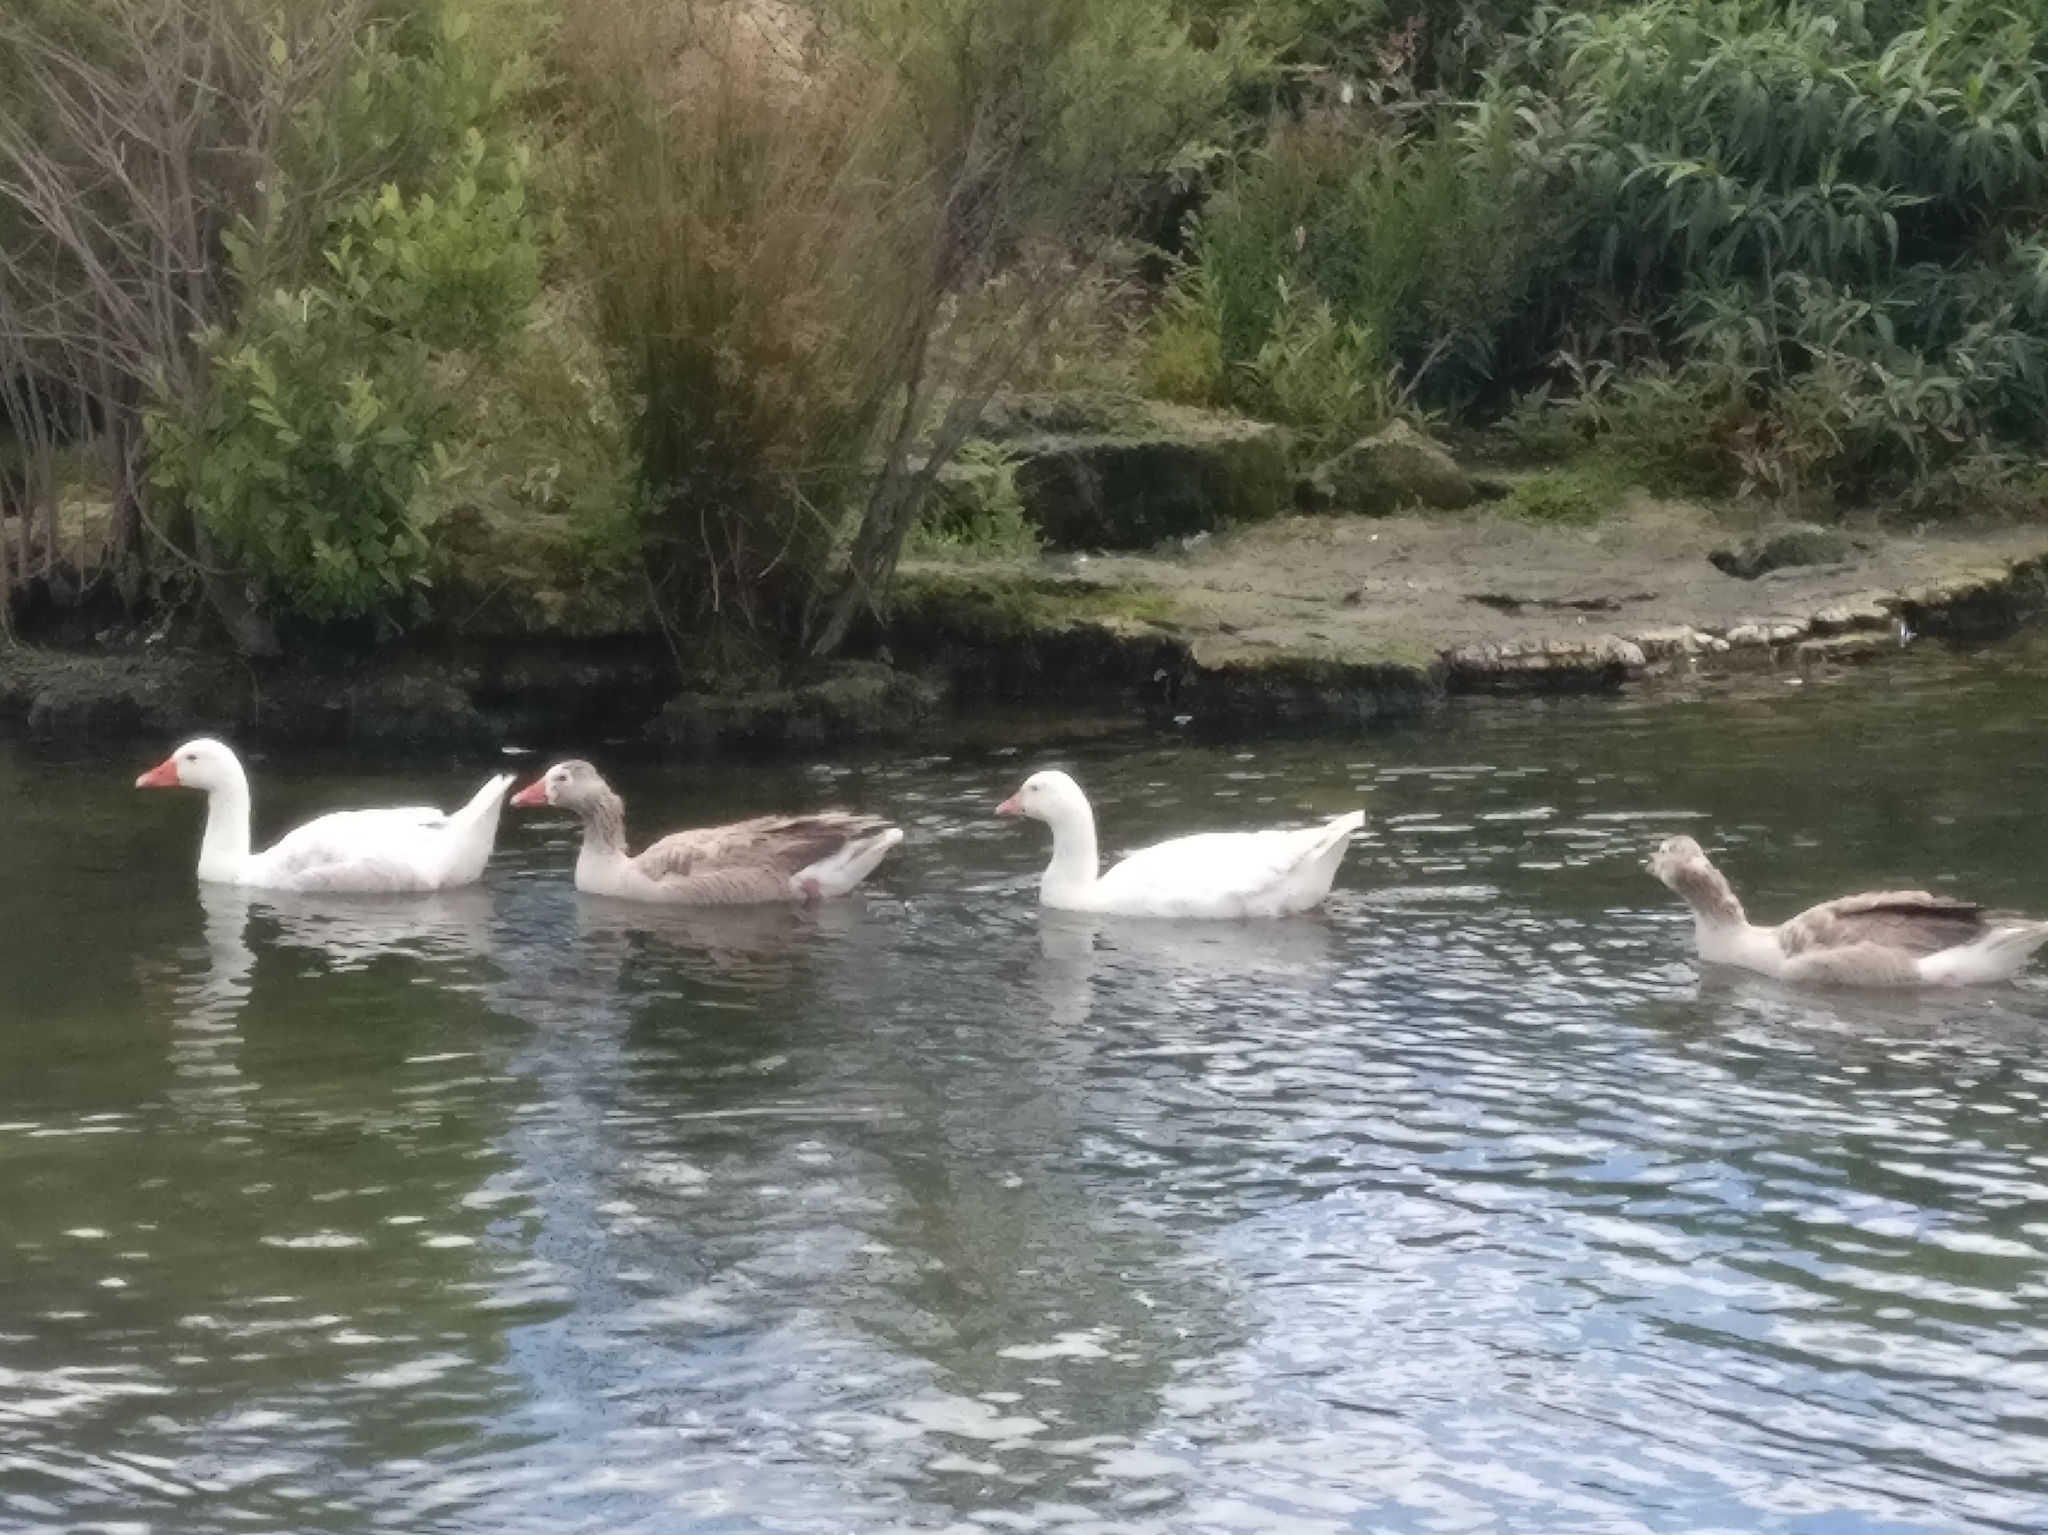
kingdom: Animalia
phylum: Chordata
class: Aves
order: Anseriformes
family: Anatidae
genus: Anser
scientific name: Anser anser
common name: Greylag goose
